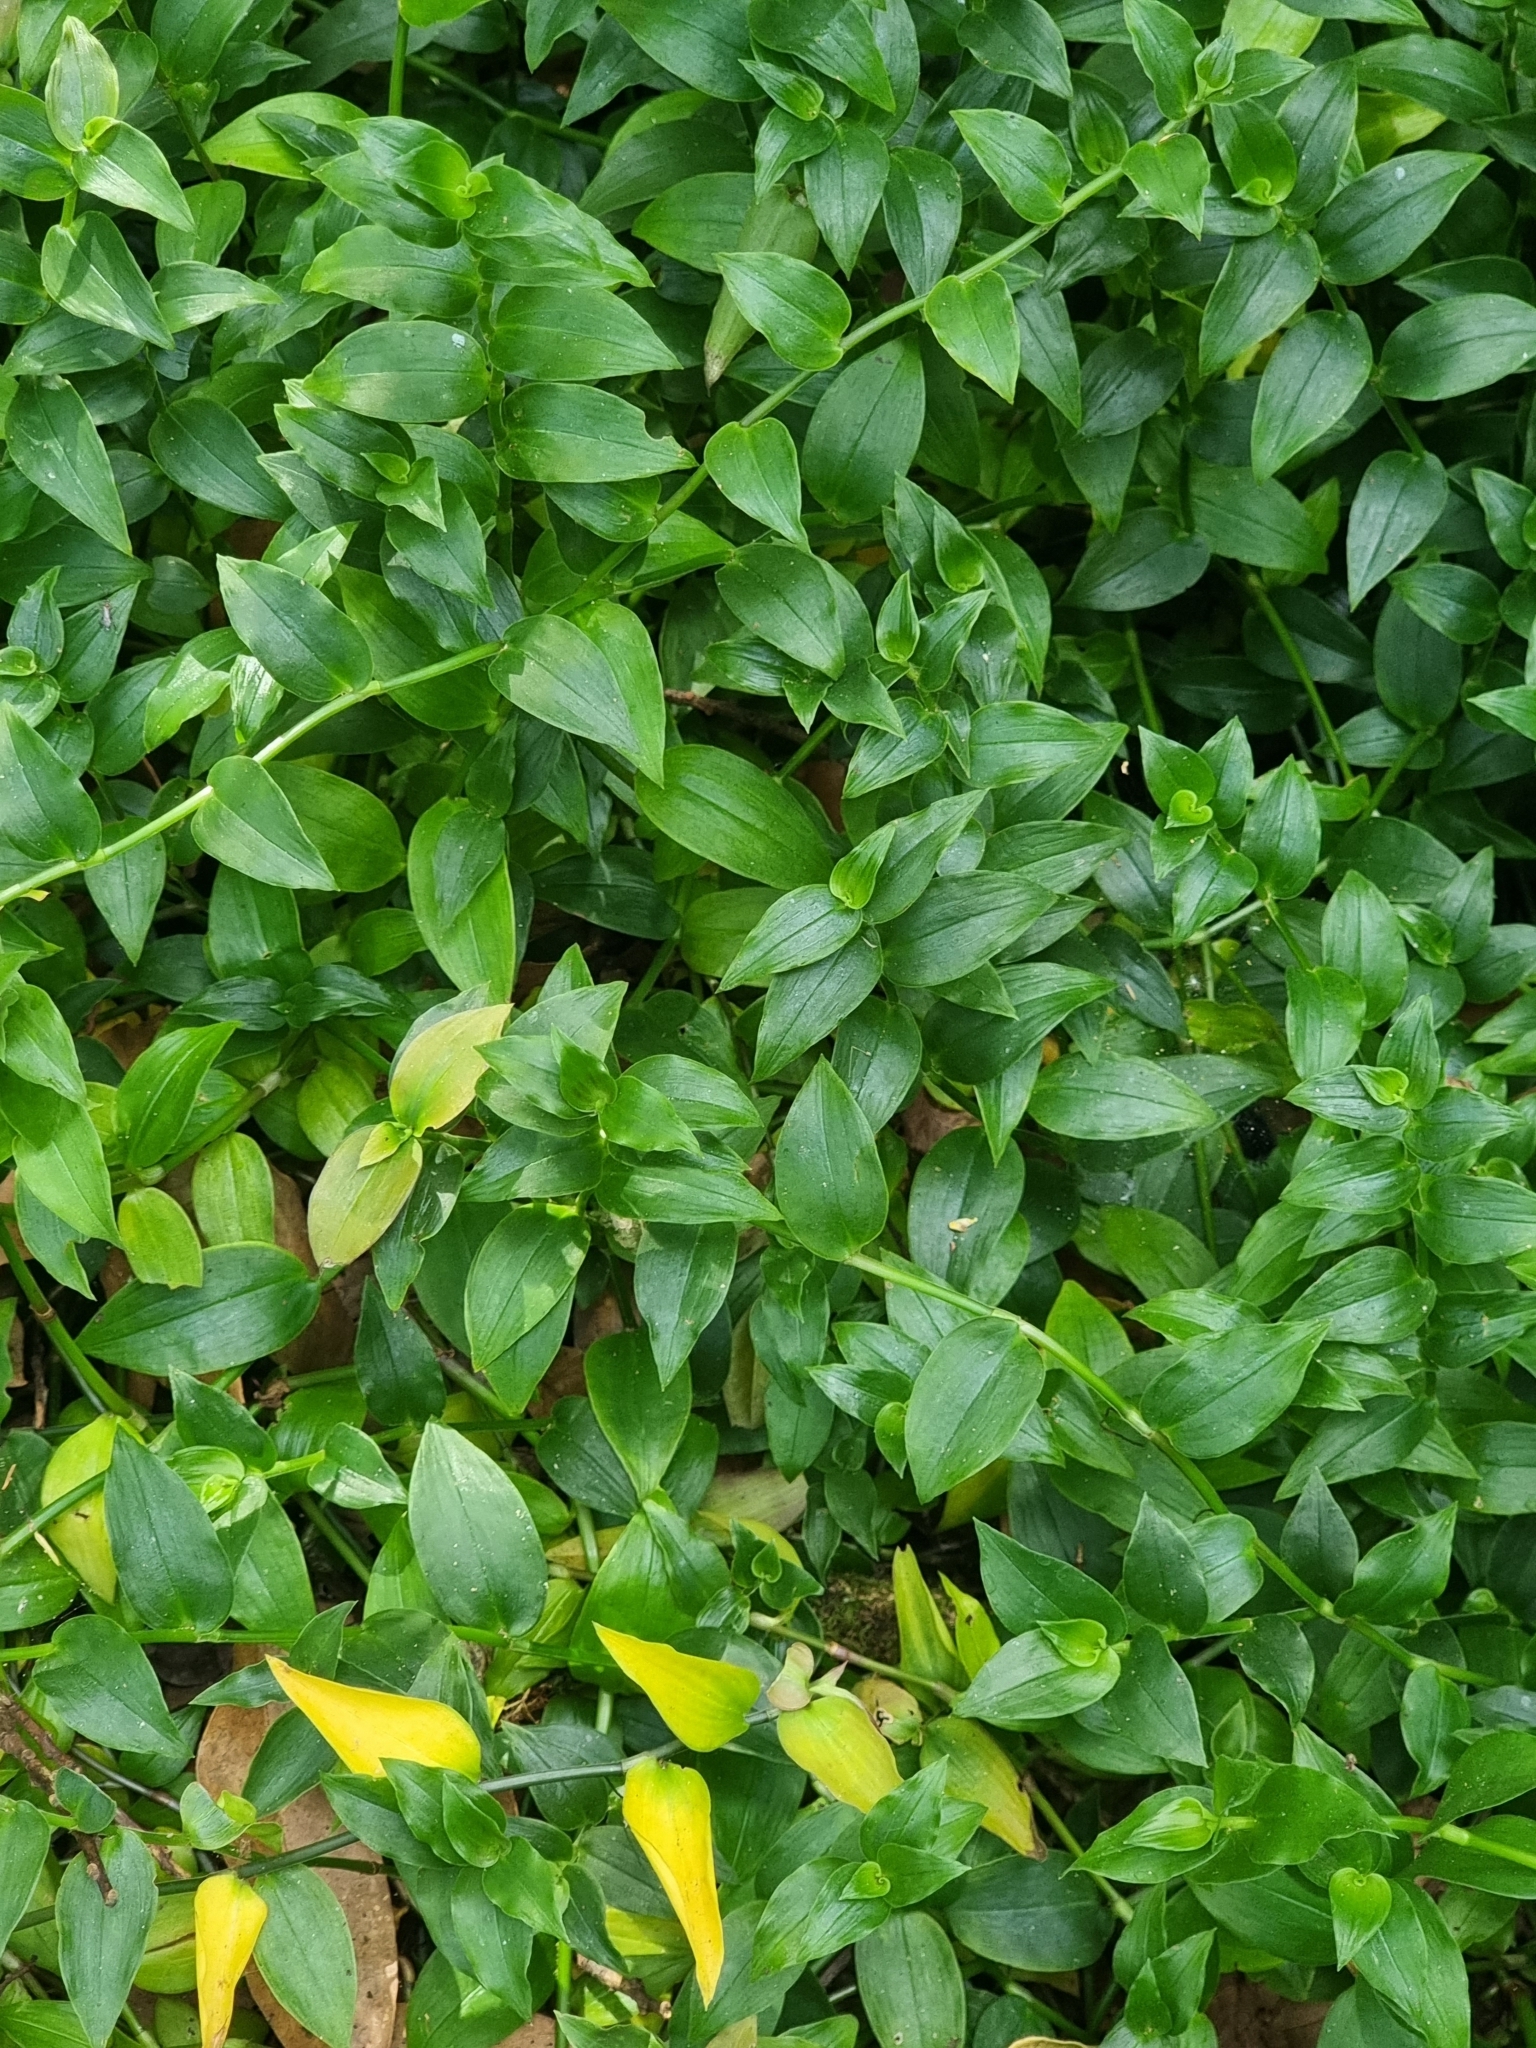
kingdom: Plantae
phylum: Tracheophyta
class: Liliopsida
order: Commelinales
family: Commelinaceae
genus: Tradescantia
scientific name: Tradescantia fluminensis
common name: Wandering-jew
